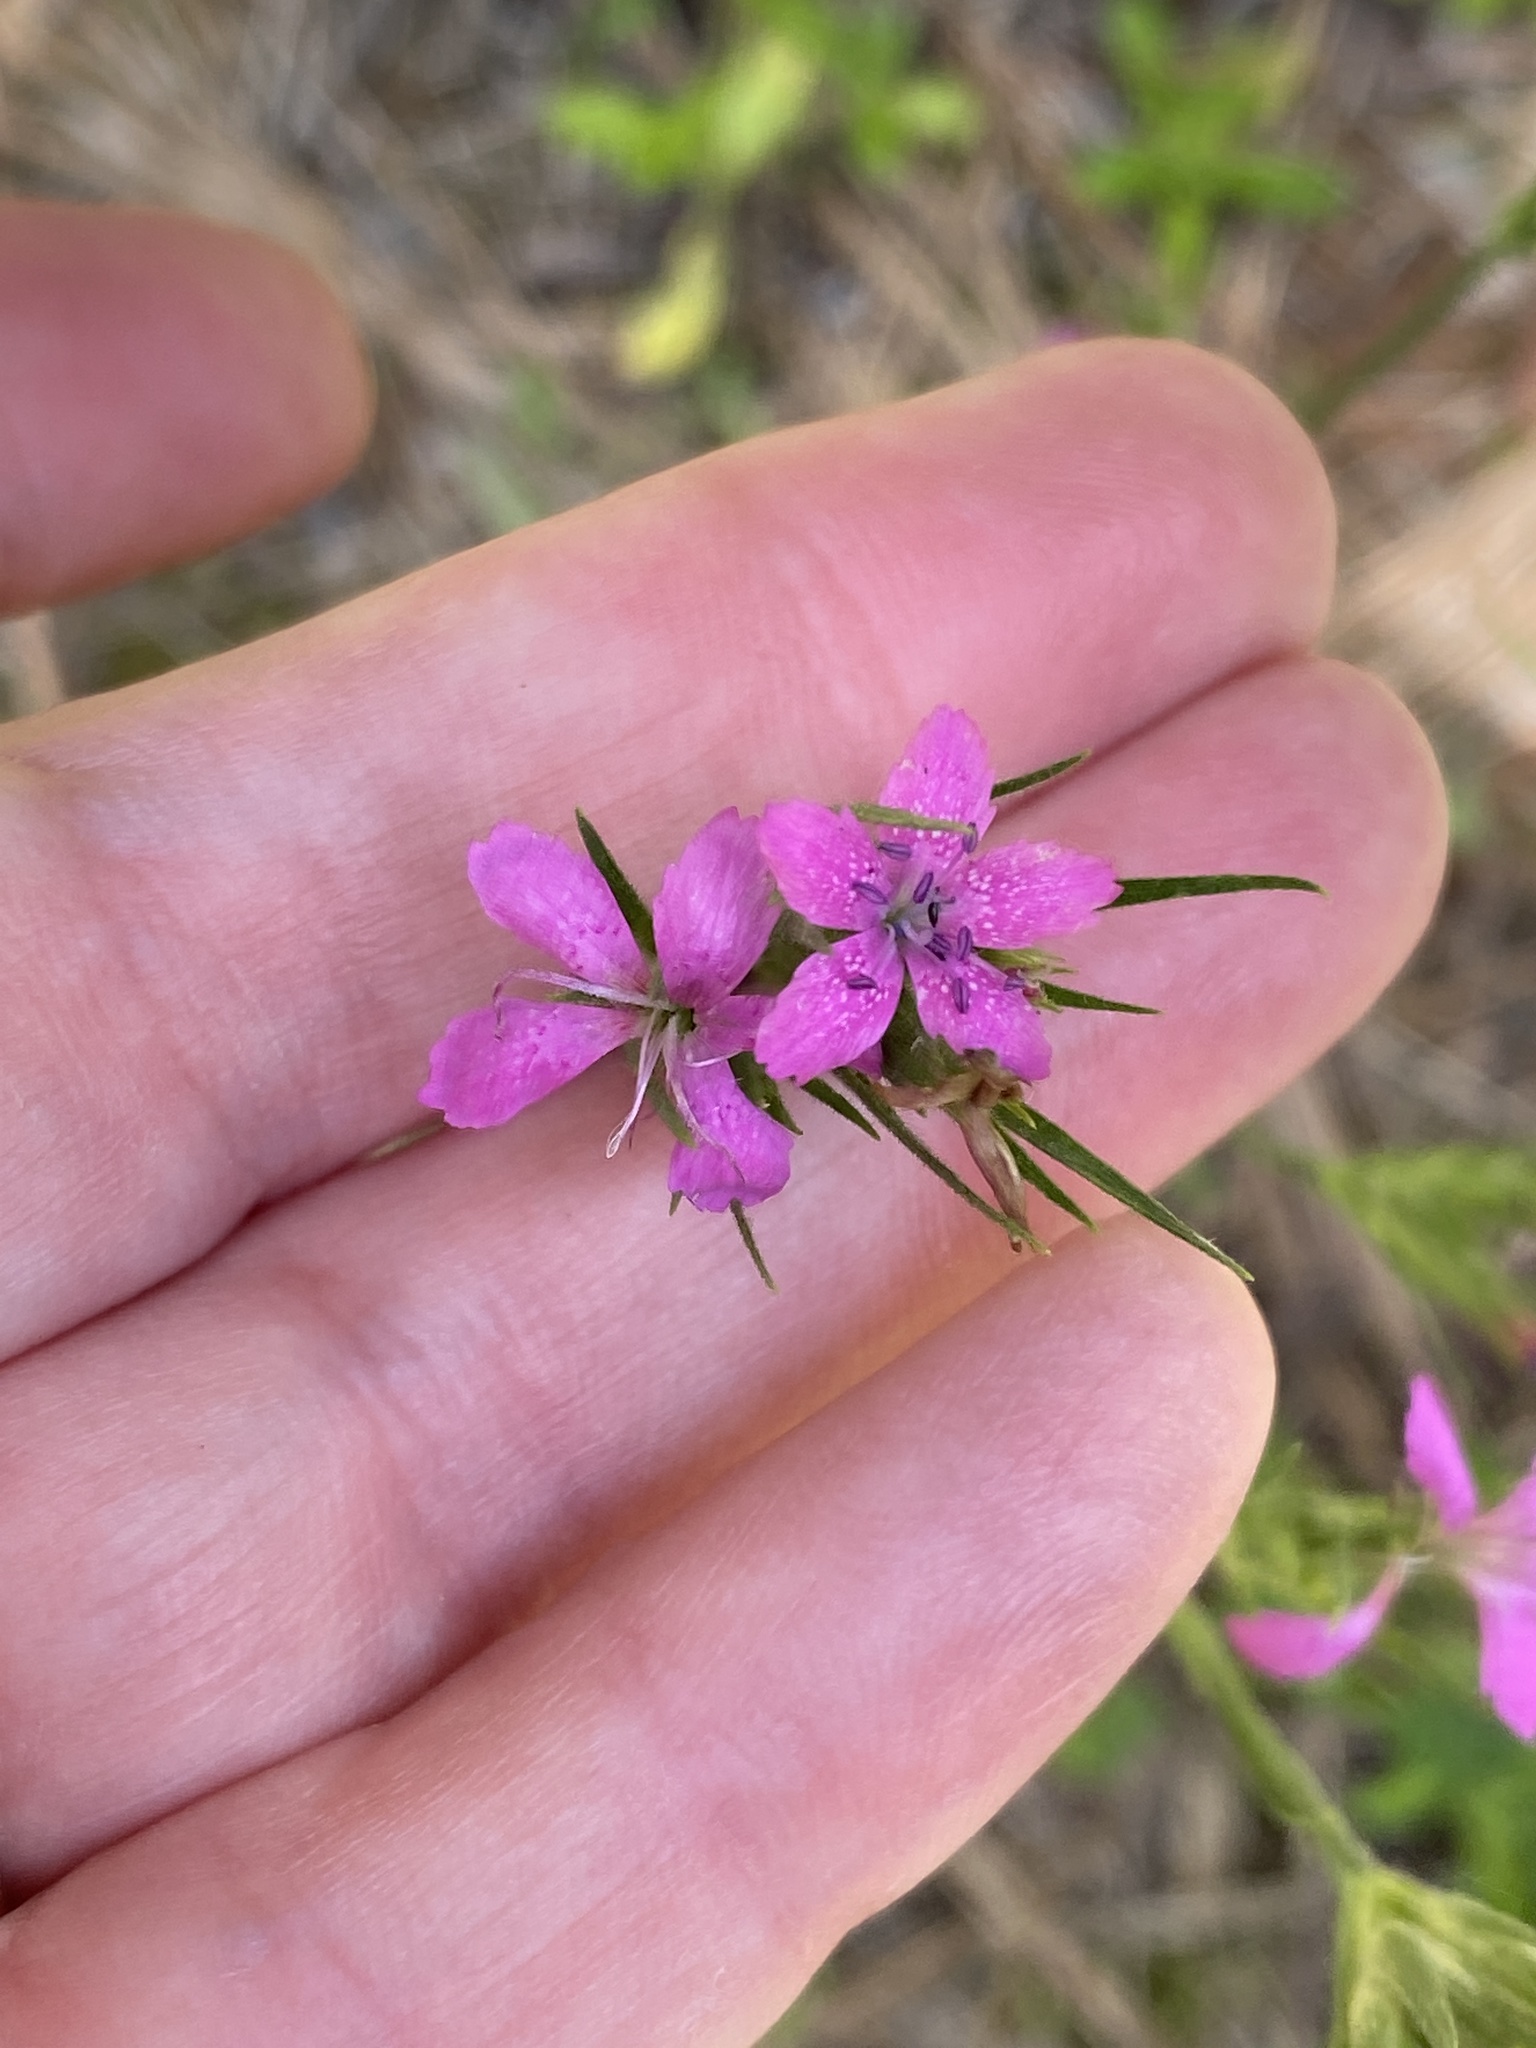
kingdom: Plantae
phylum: Tracheophyta
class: Magnoliopsida
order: Caryophyllales
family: Caryophyllaceae
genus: Dianthus
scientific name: Dianthus armeria
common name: Deptford pink
